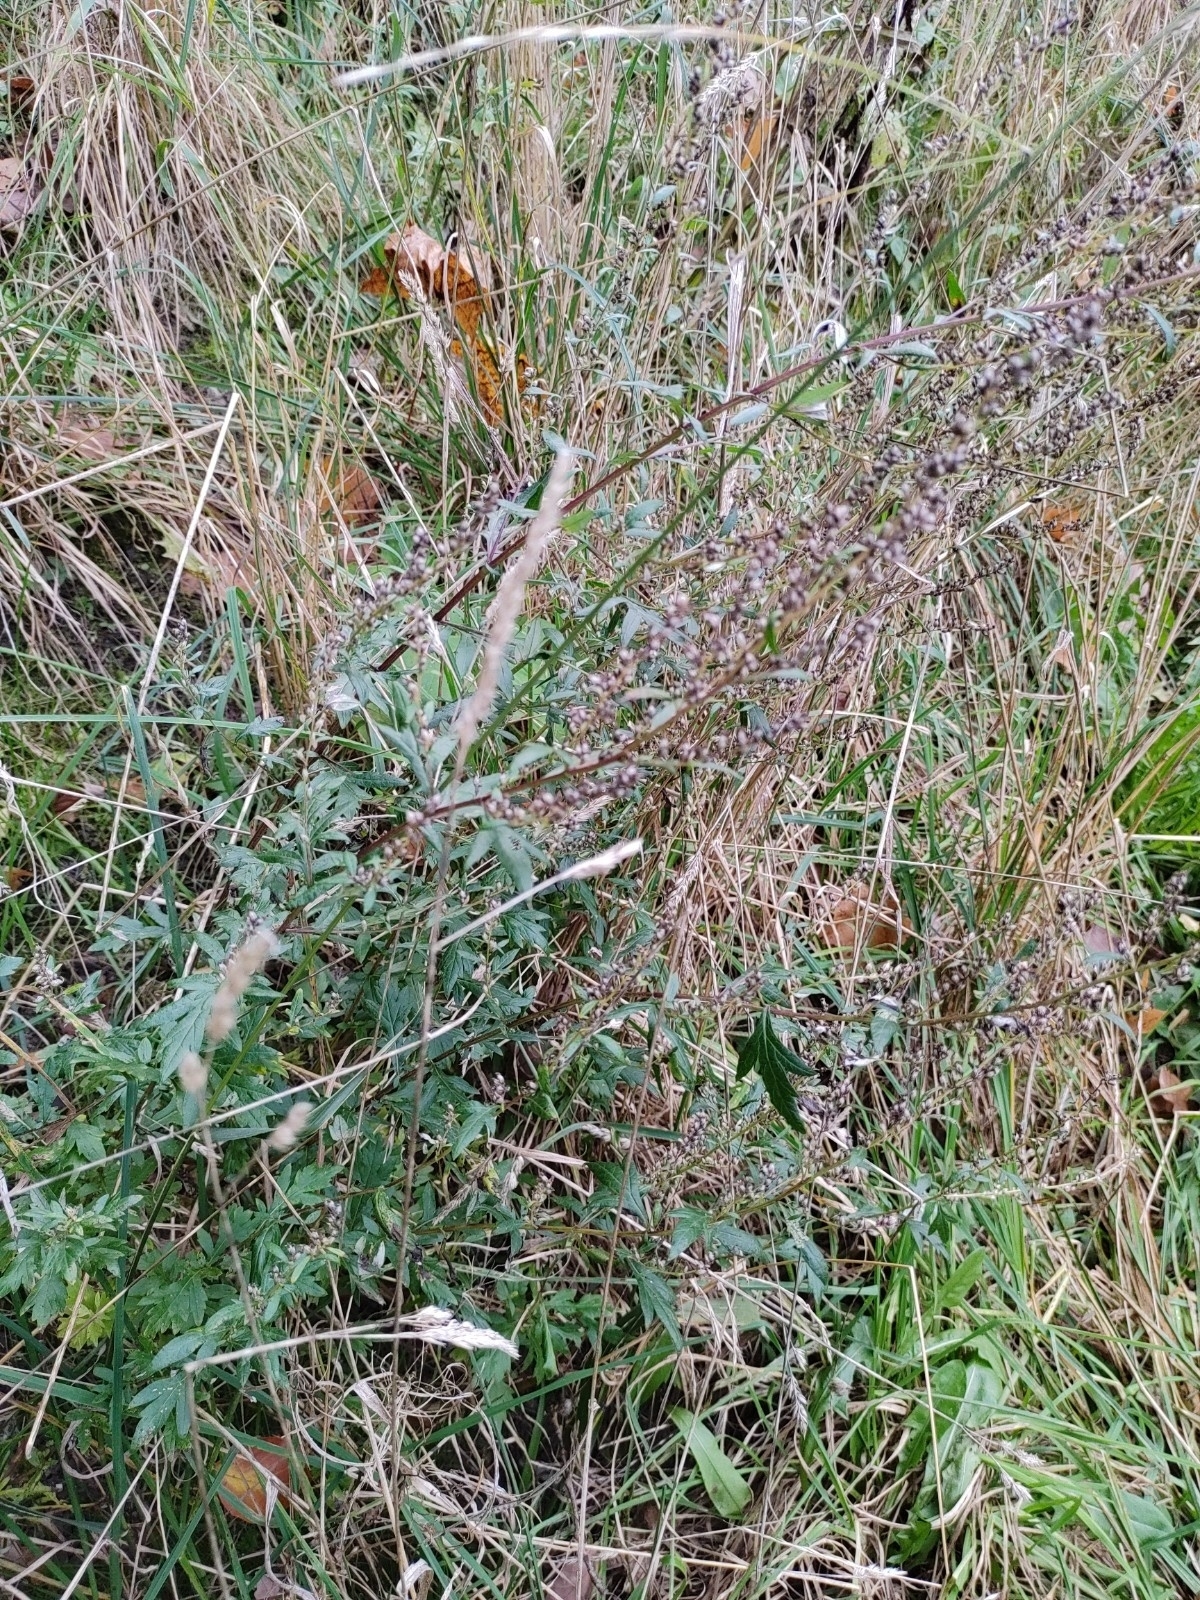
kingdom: Plantae
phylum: Tracheophyta
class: Magnoliopsida
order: Asterales
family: Asteraceae
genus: Artemisia
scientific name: Artemisia vulgaris
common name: Mugwort
